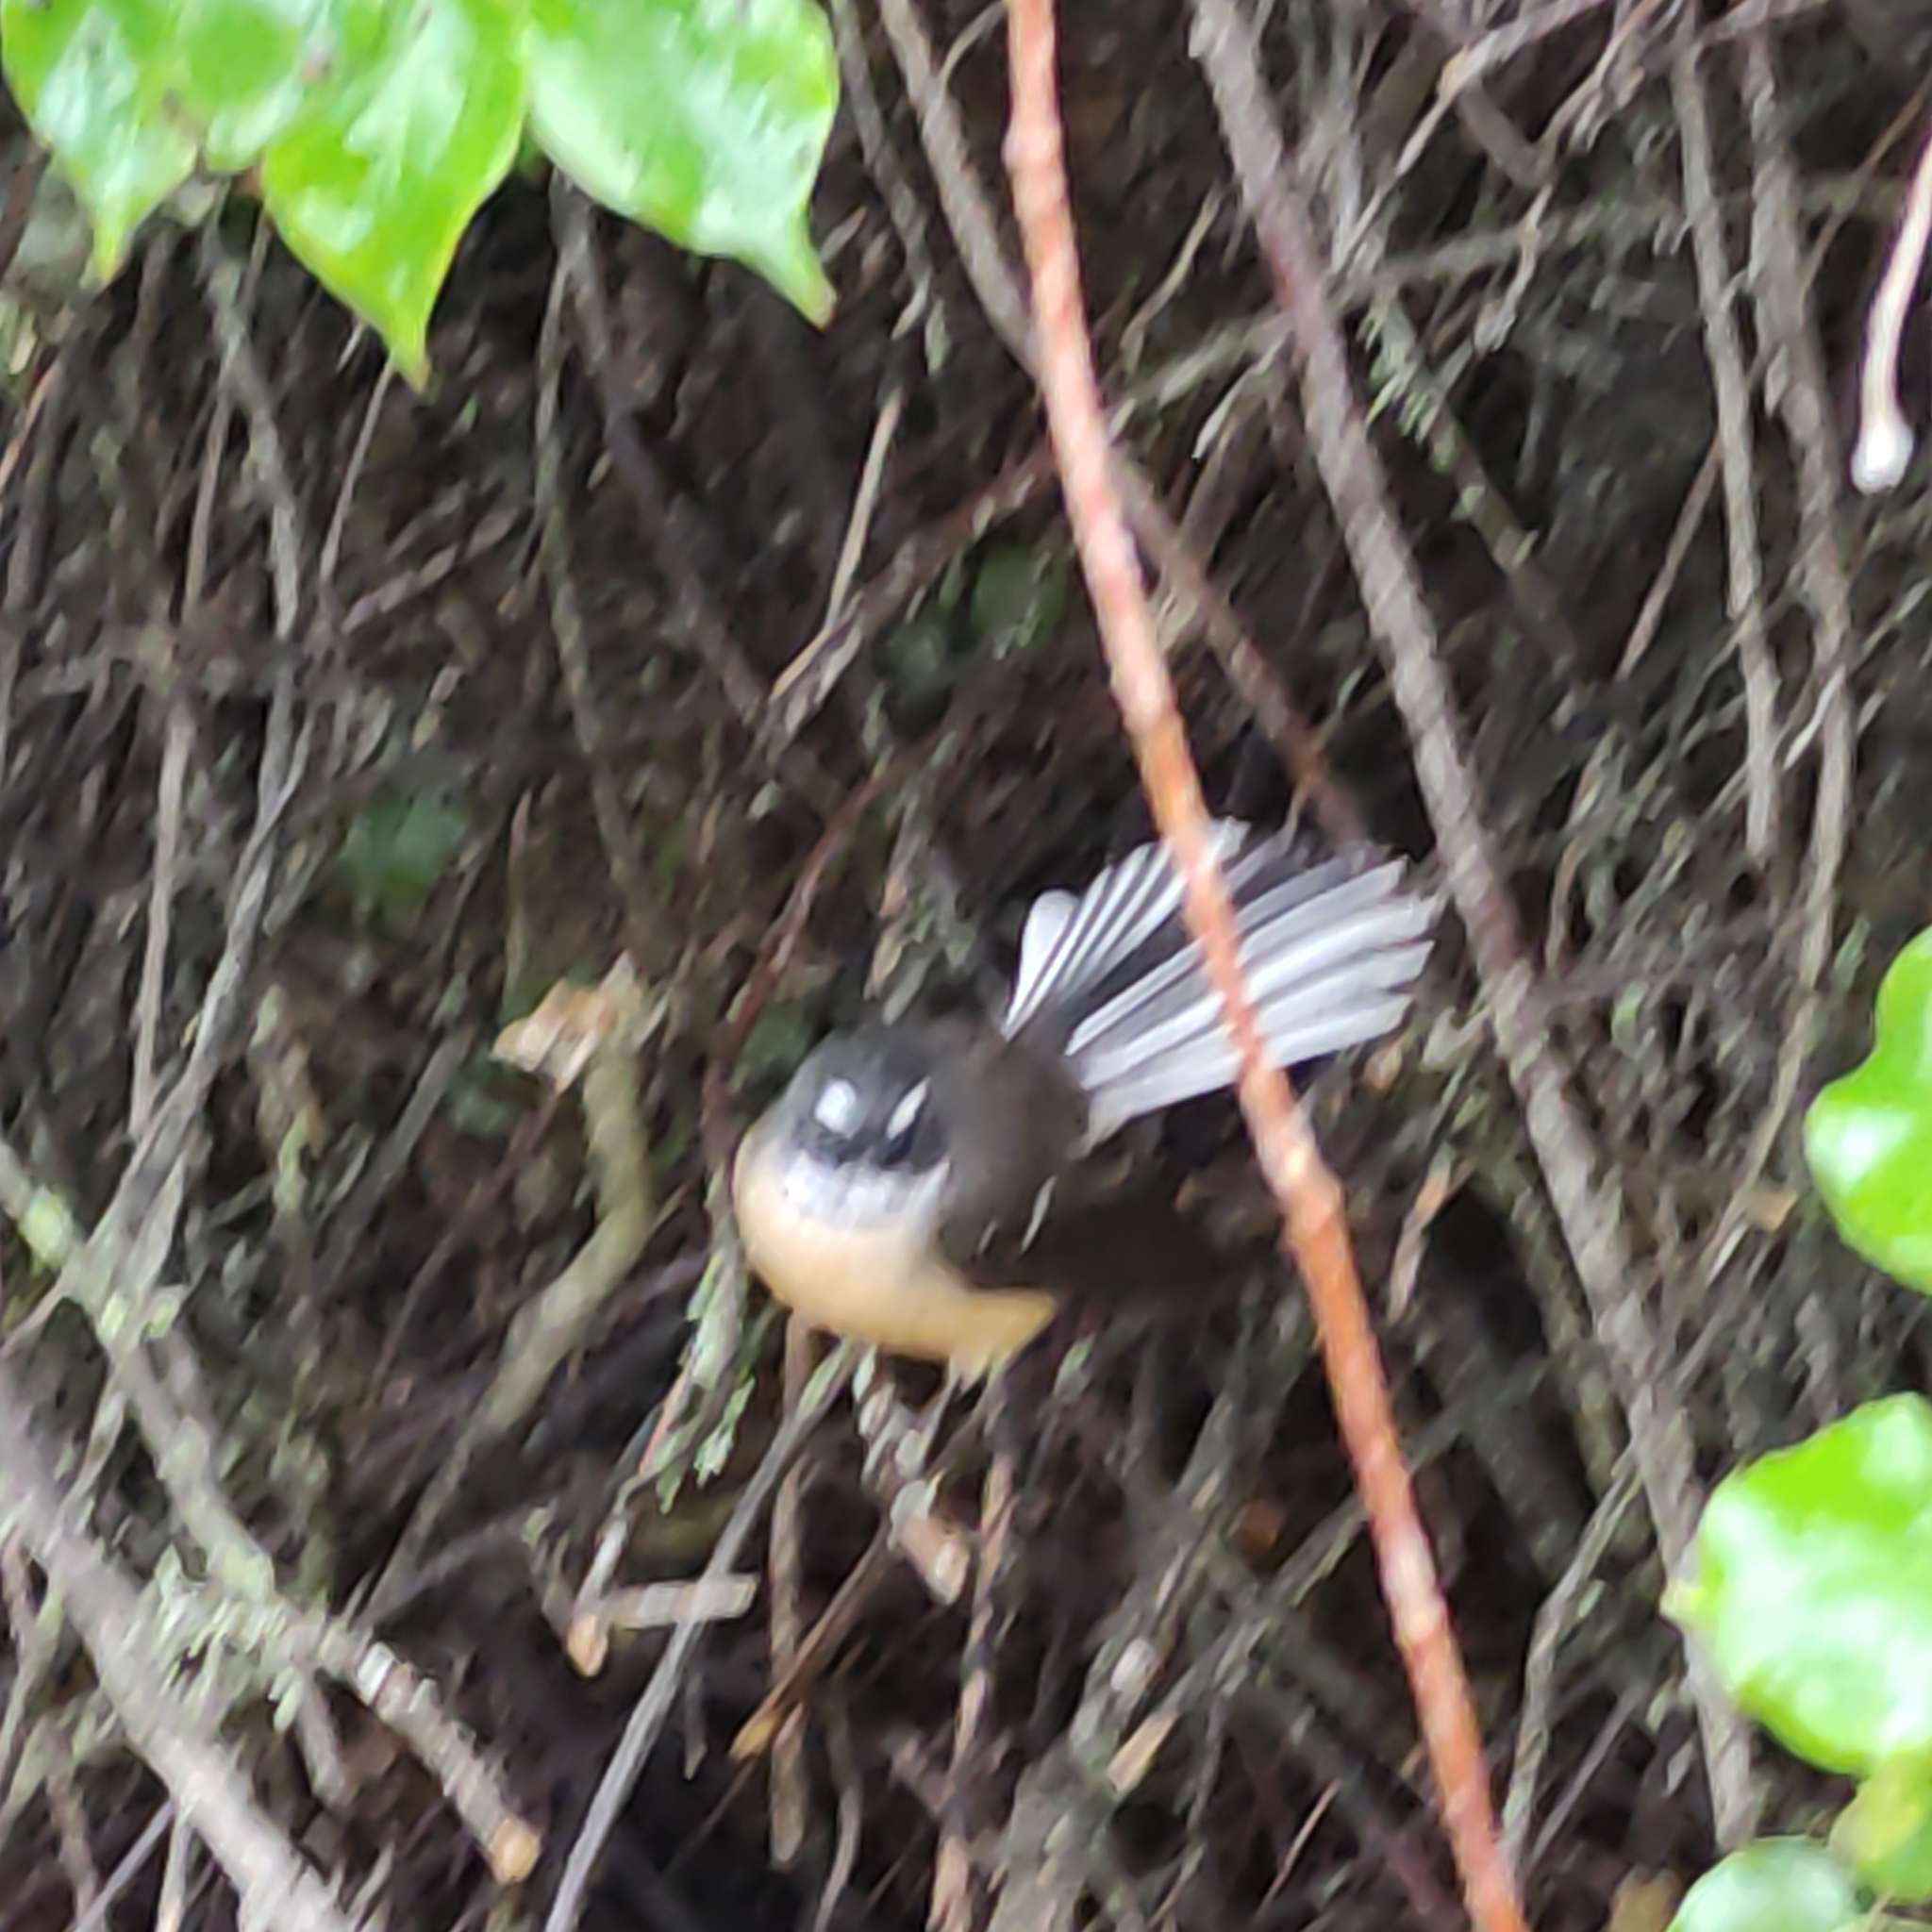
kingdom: Animalia
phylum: Chordata
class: Aves
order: Passeriformes
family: Rhipiduridae
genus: Rhipidura
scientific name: Rhipidura fuliginosa
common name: New zealand fantail
